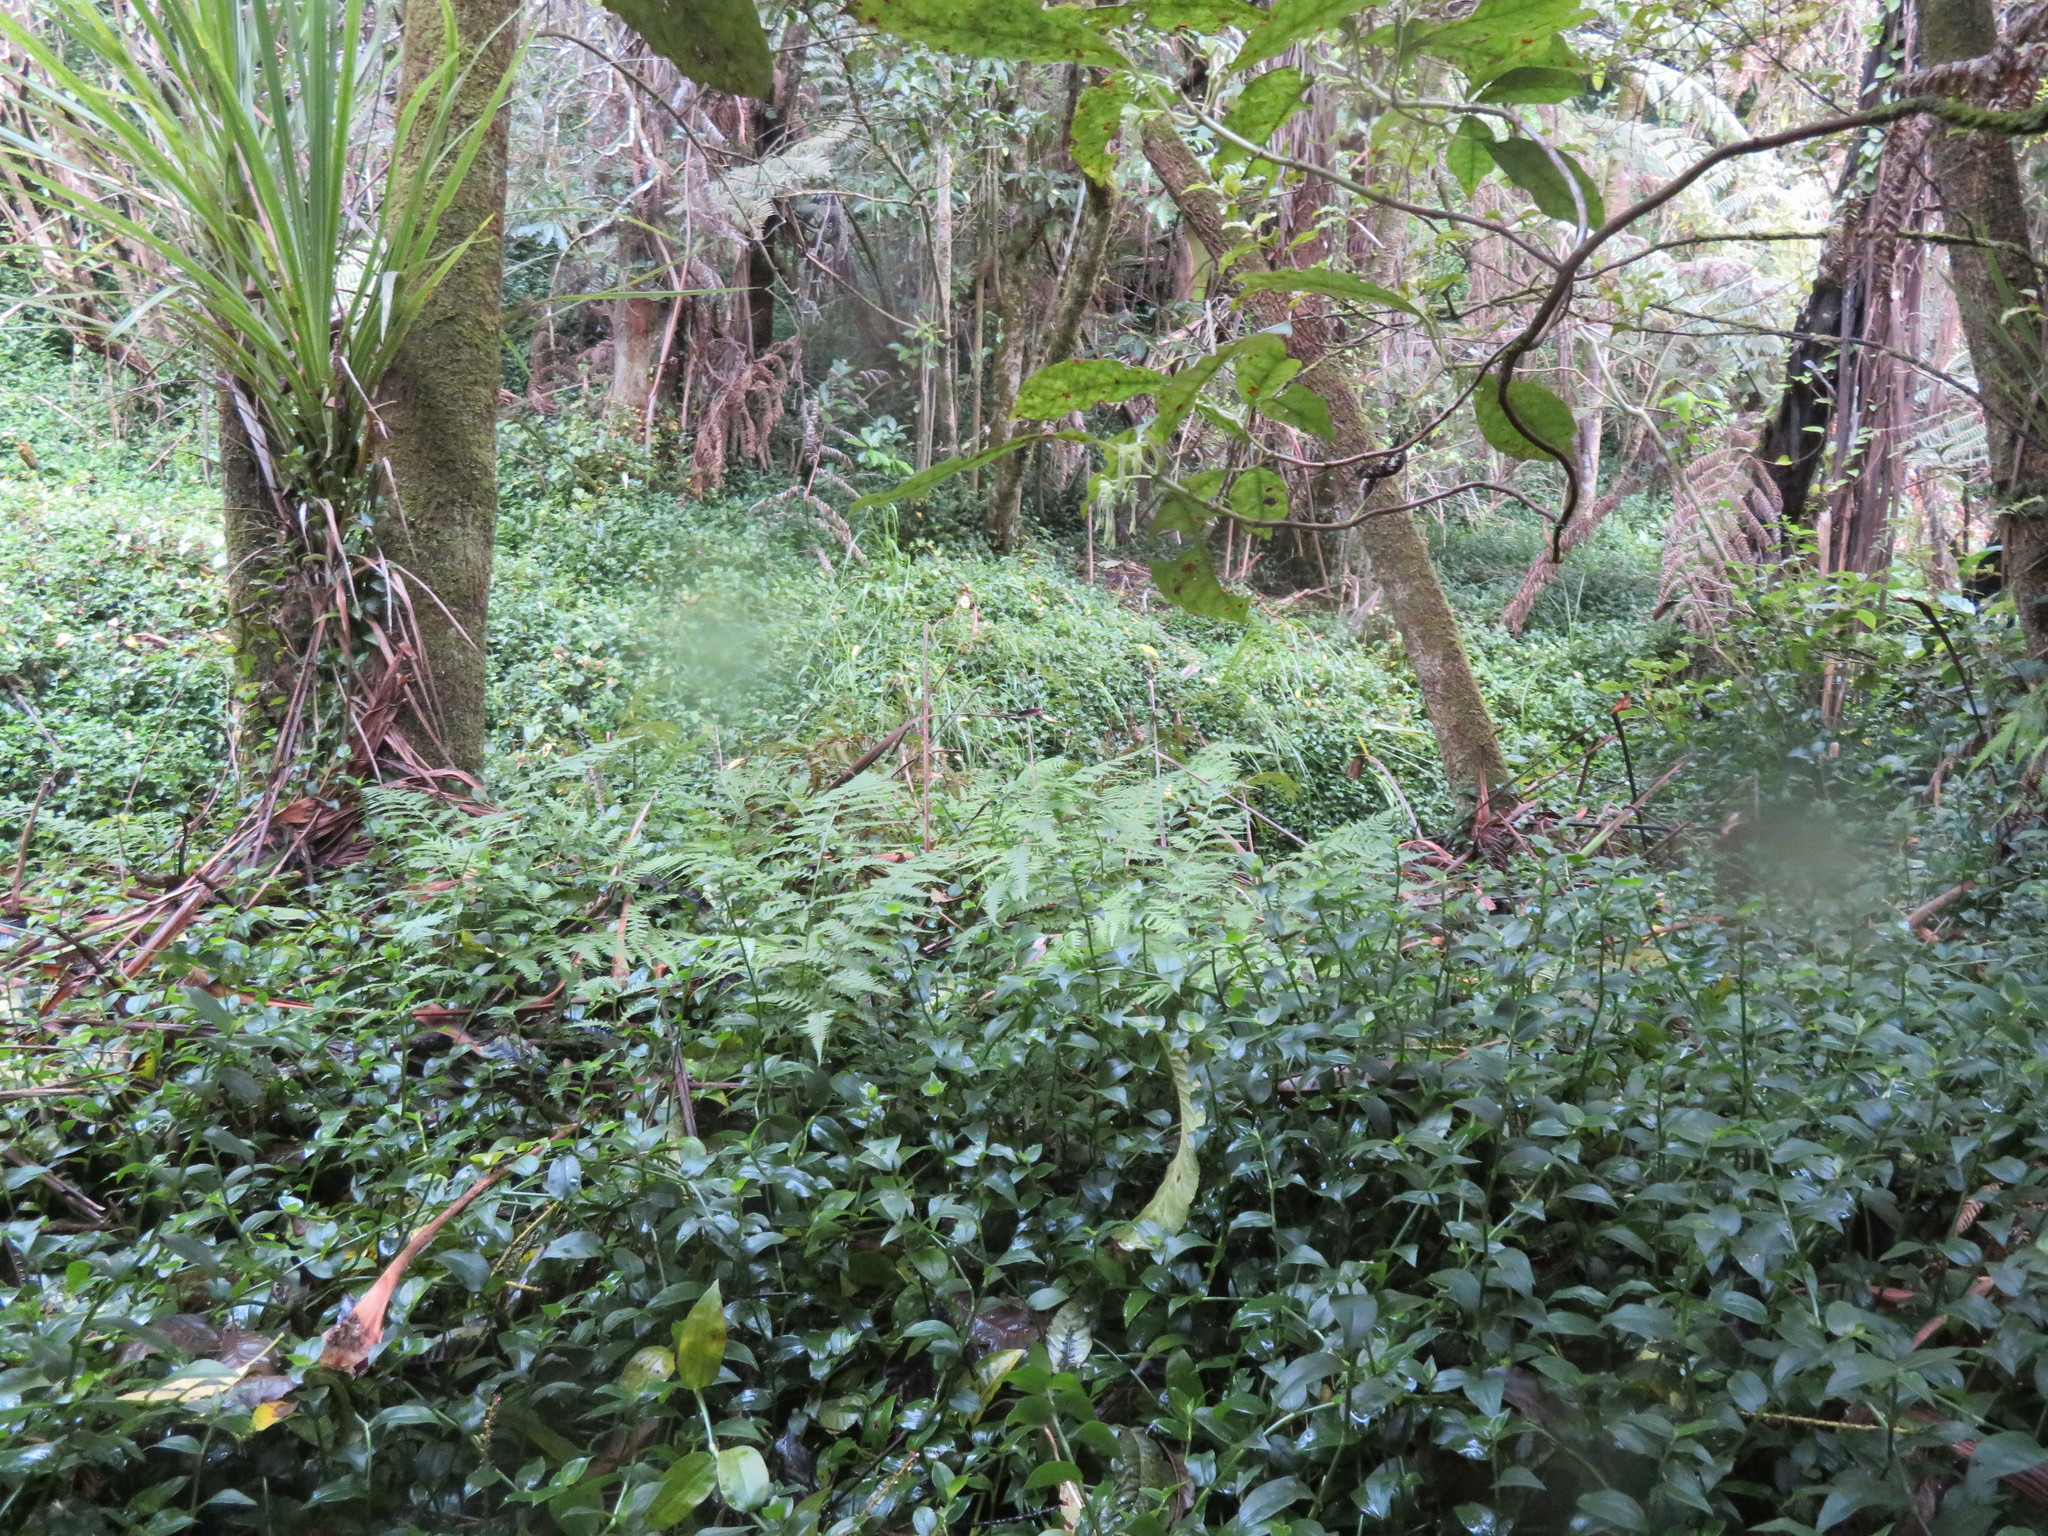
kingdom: Plantae
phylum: Tracheophyta
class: Magnoliopsida
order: Gentianales
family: Rubiaceae
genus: Coprosma
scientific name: Coprosma autumnalis
